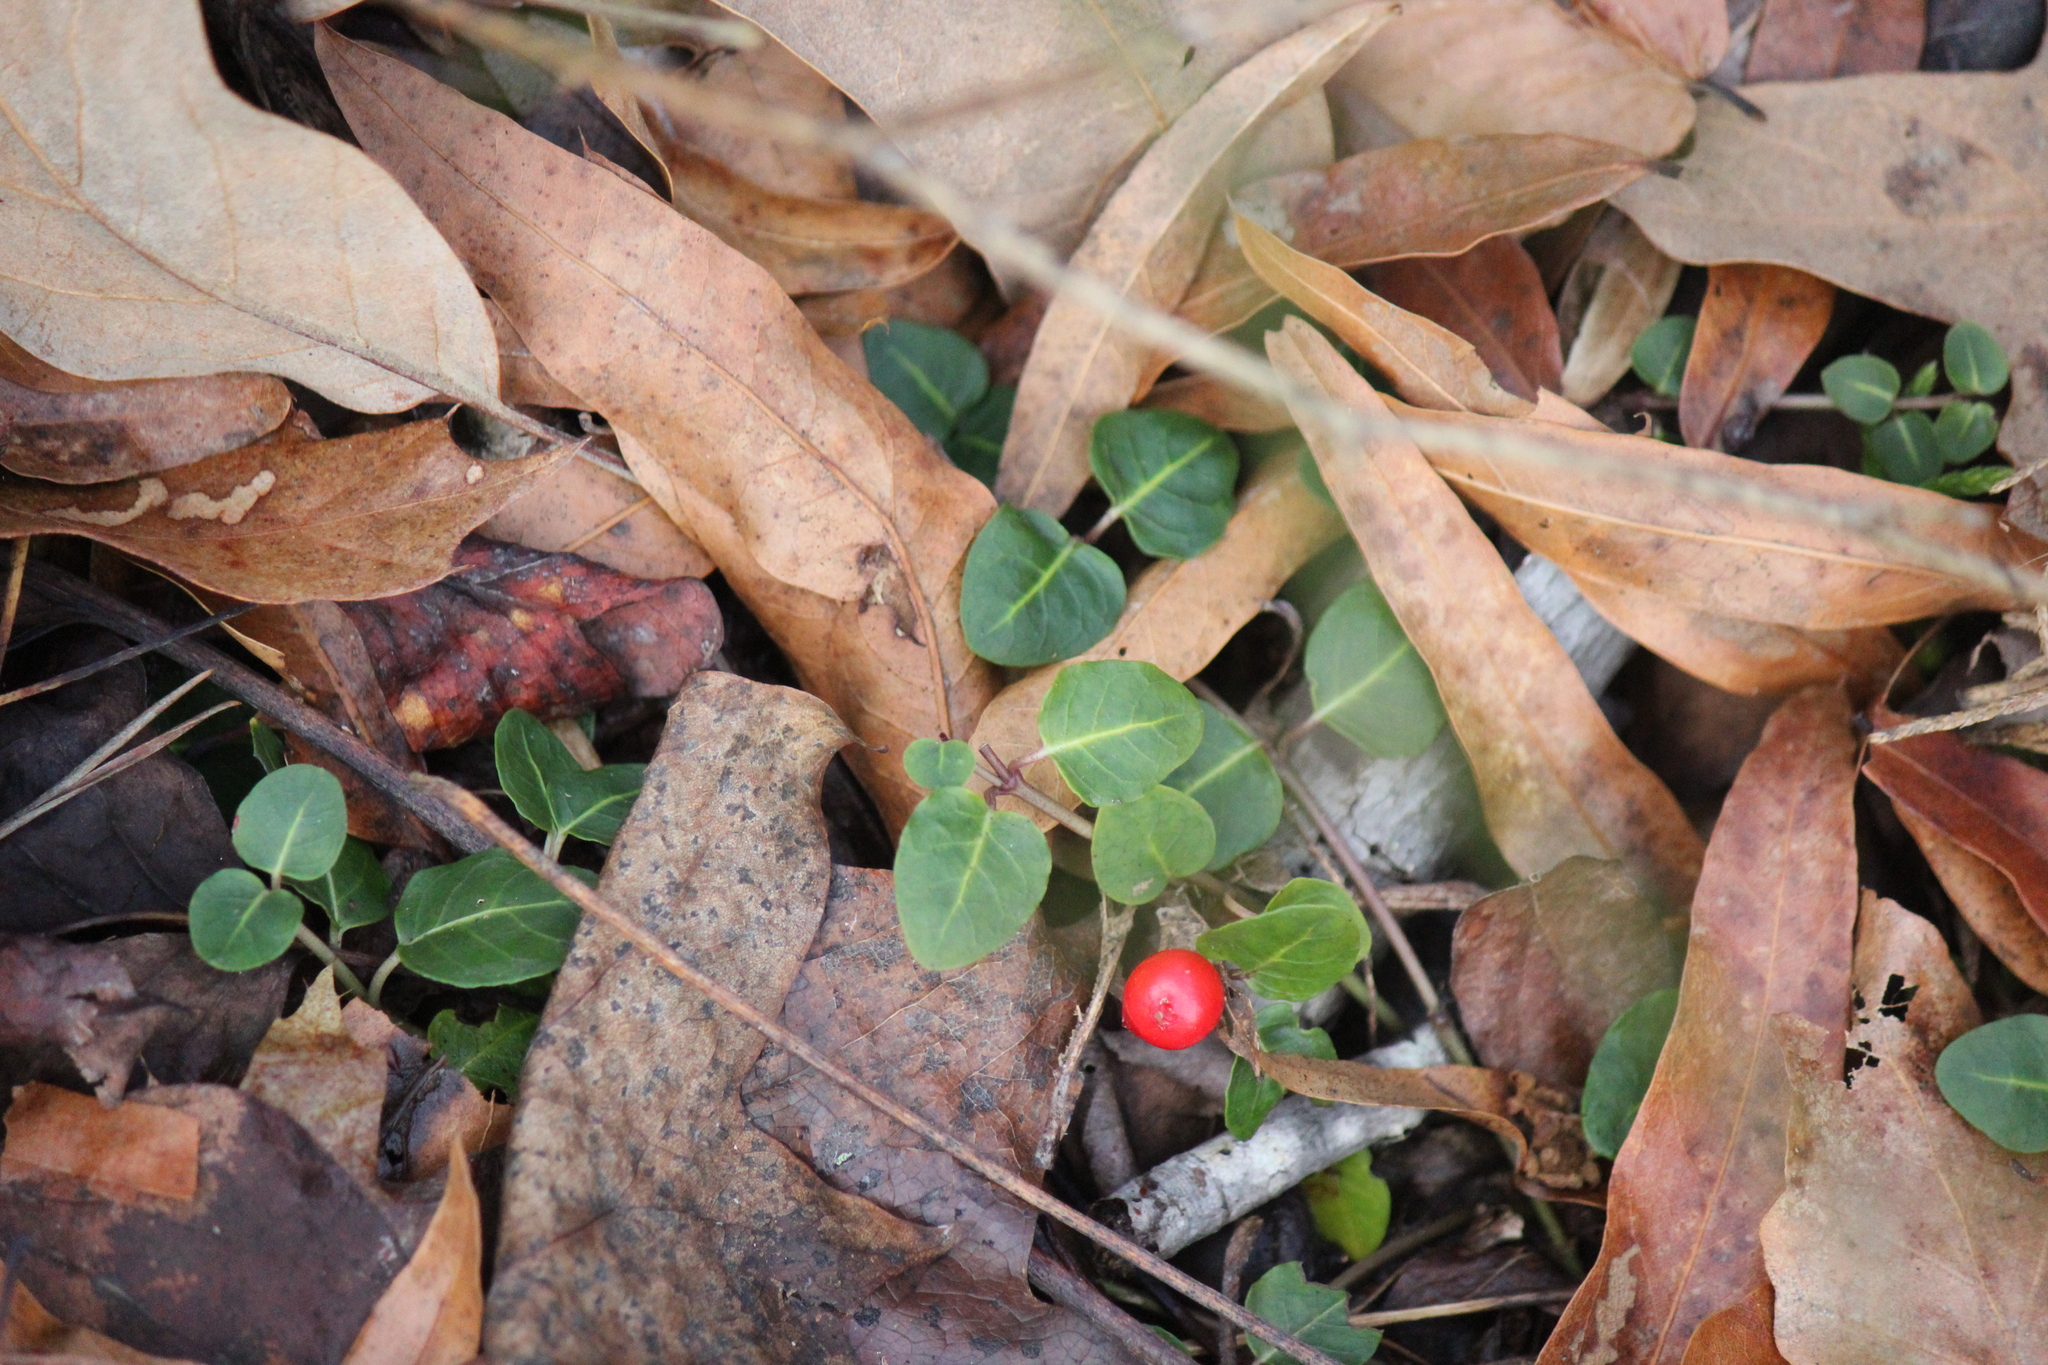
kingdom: Plantae
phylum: Tracheophyta
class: Magnoliopsida
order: Gentianales
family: Rubiaceae
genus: Mitchella
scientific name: Mitchella repens
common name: Partridge-berry
